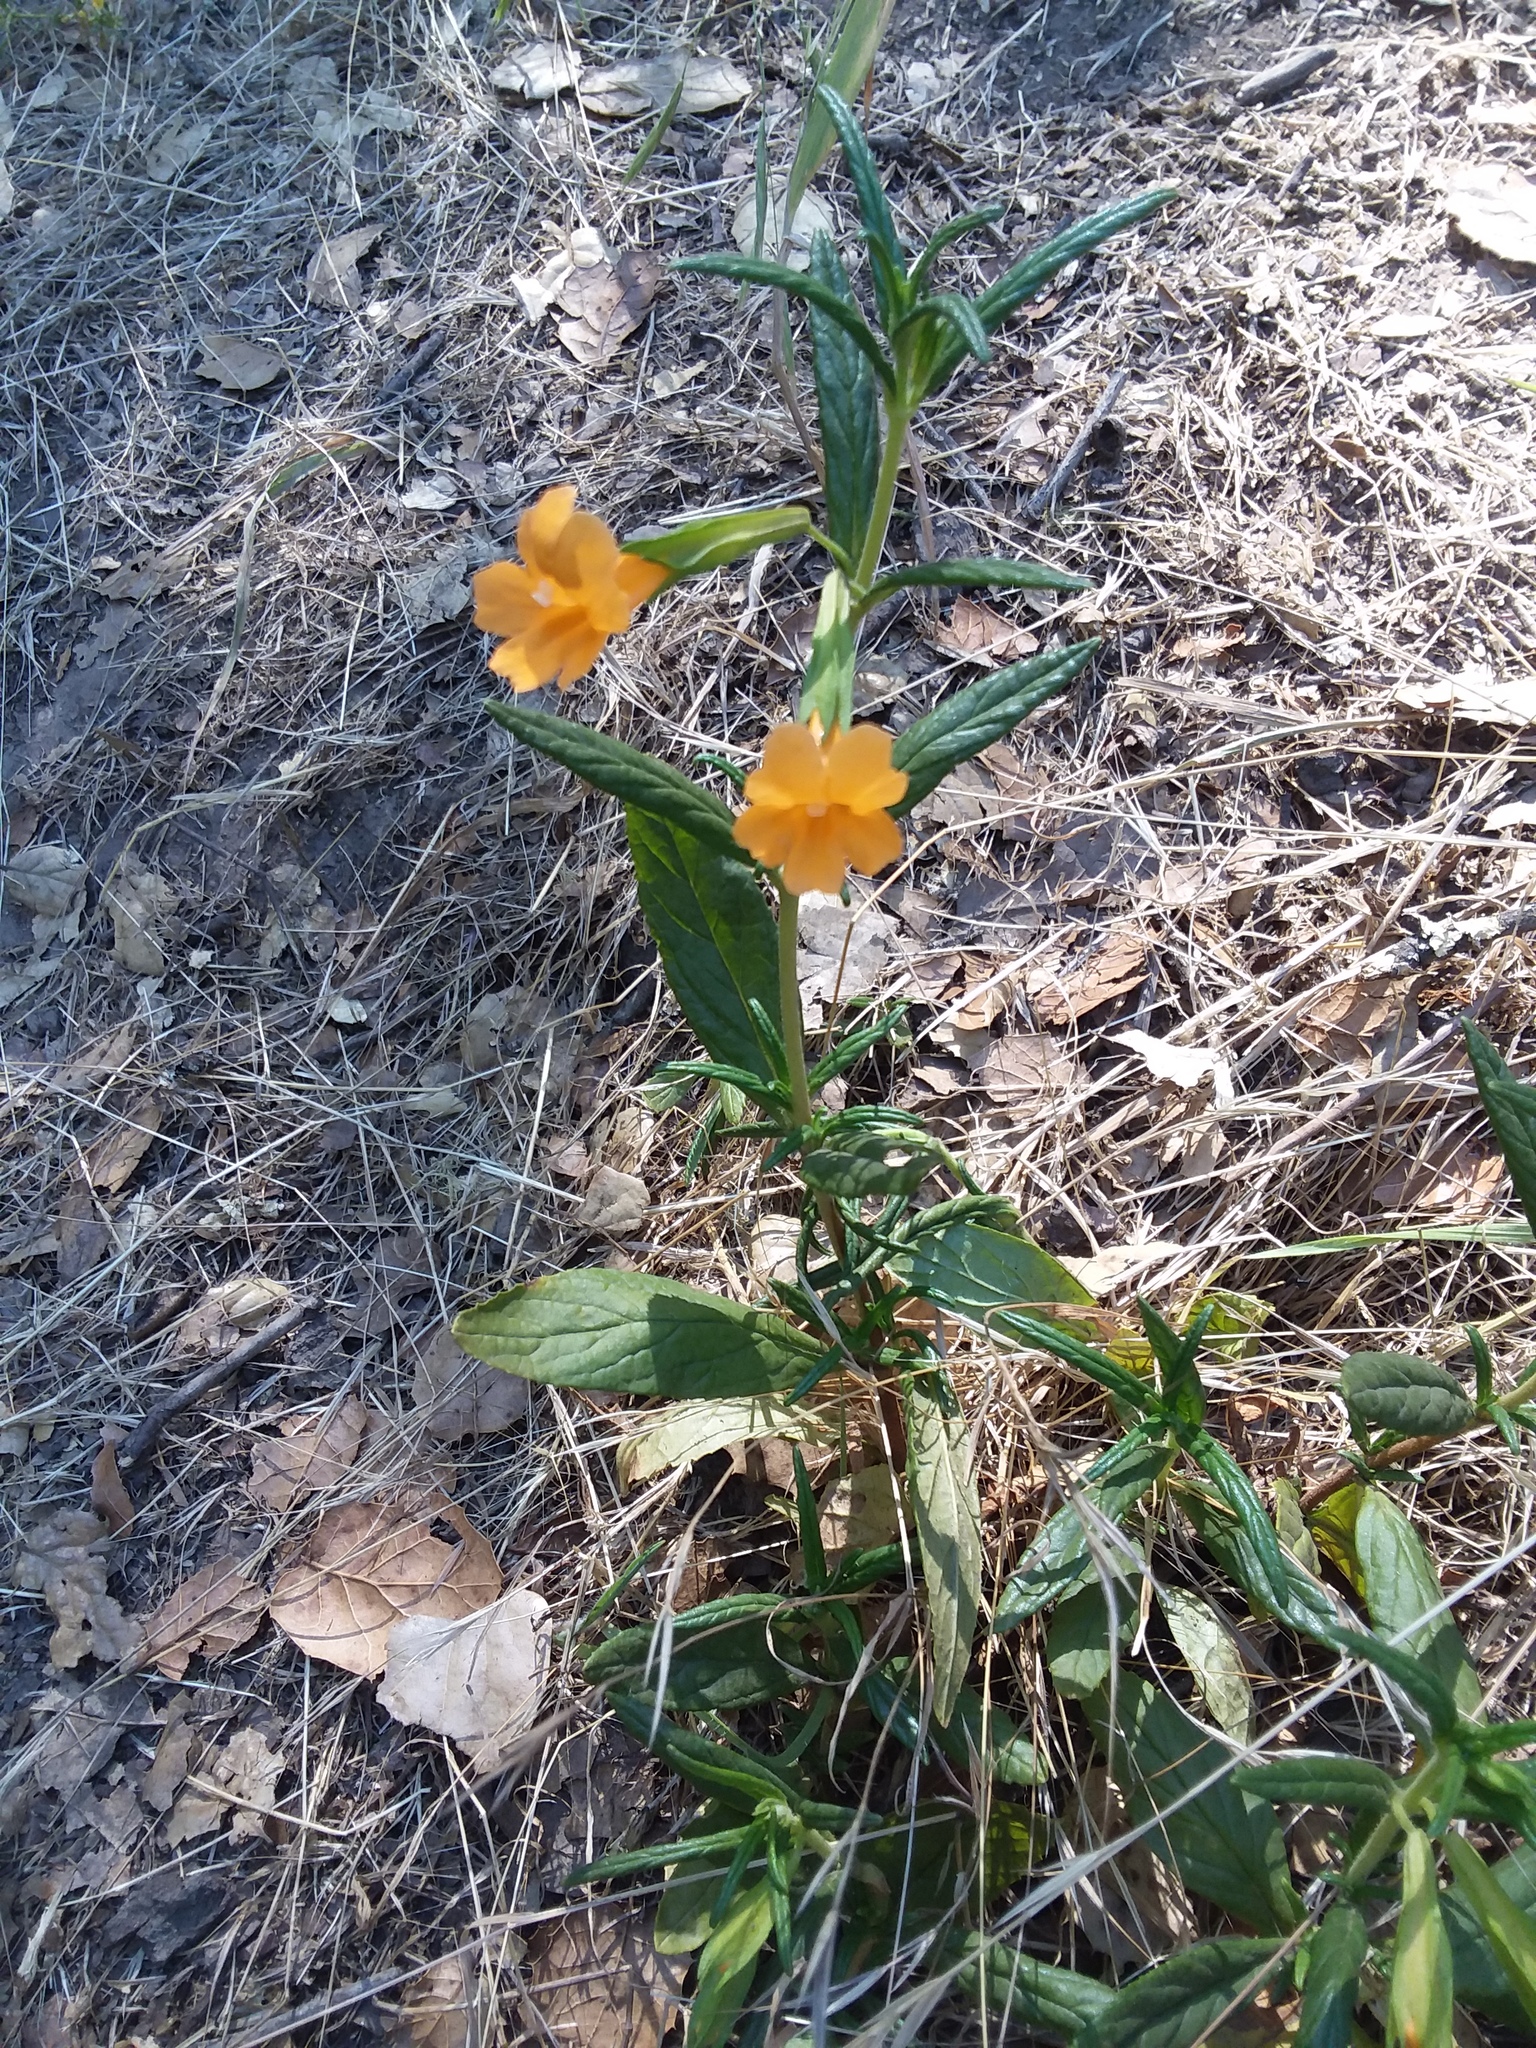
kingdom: Plantae
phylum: Tracheophyta
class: Magnoliopsida
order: Lamiales
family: Phrymaceae
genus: Diplacus
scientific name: Diplacus aurantiacus
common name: Bush monkey-flower
